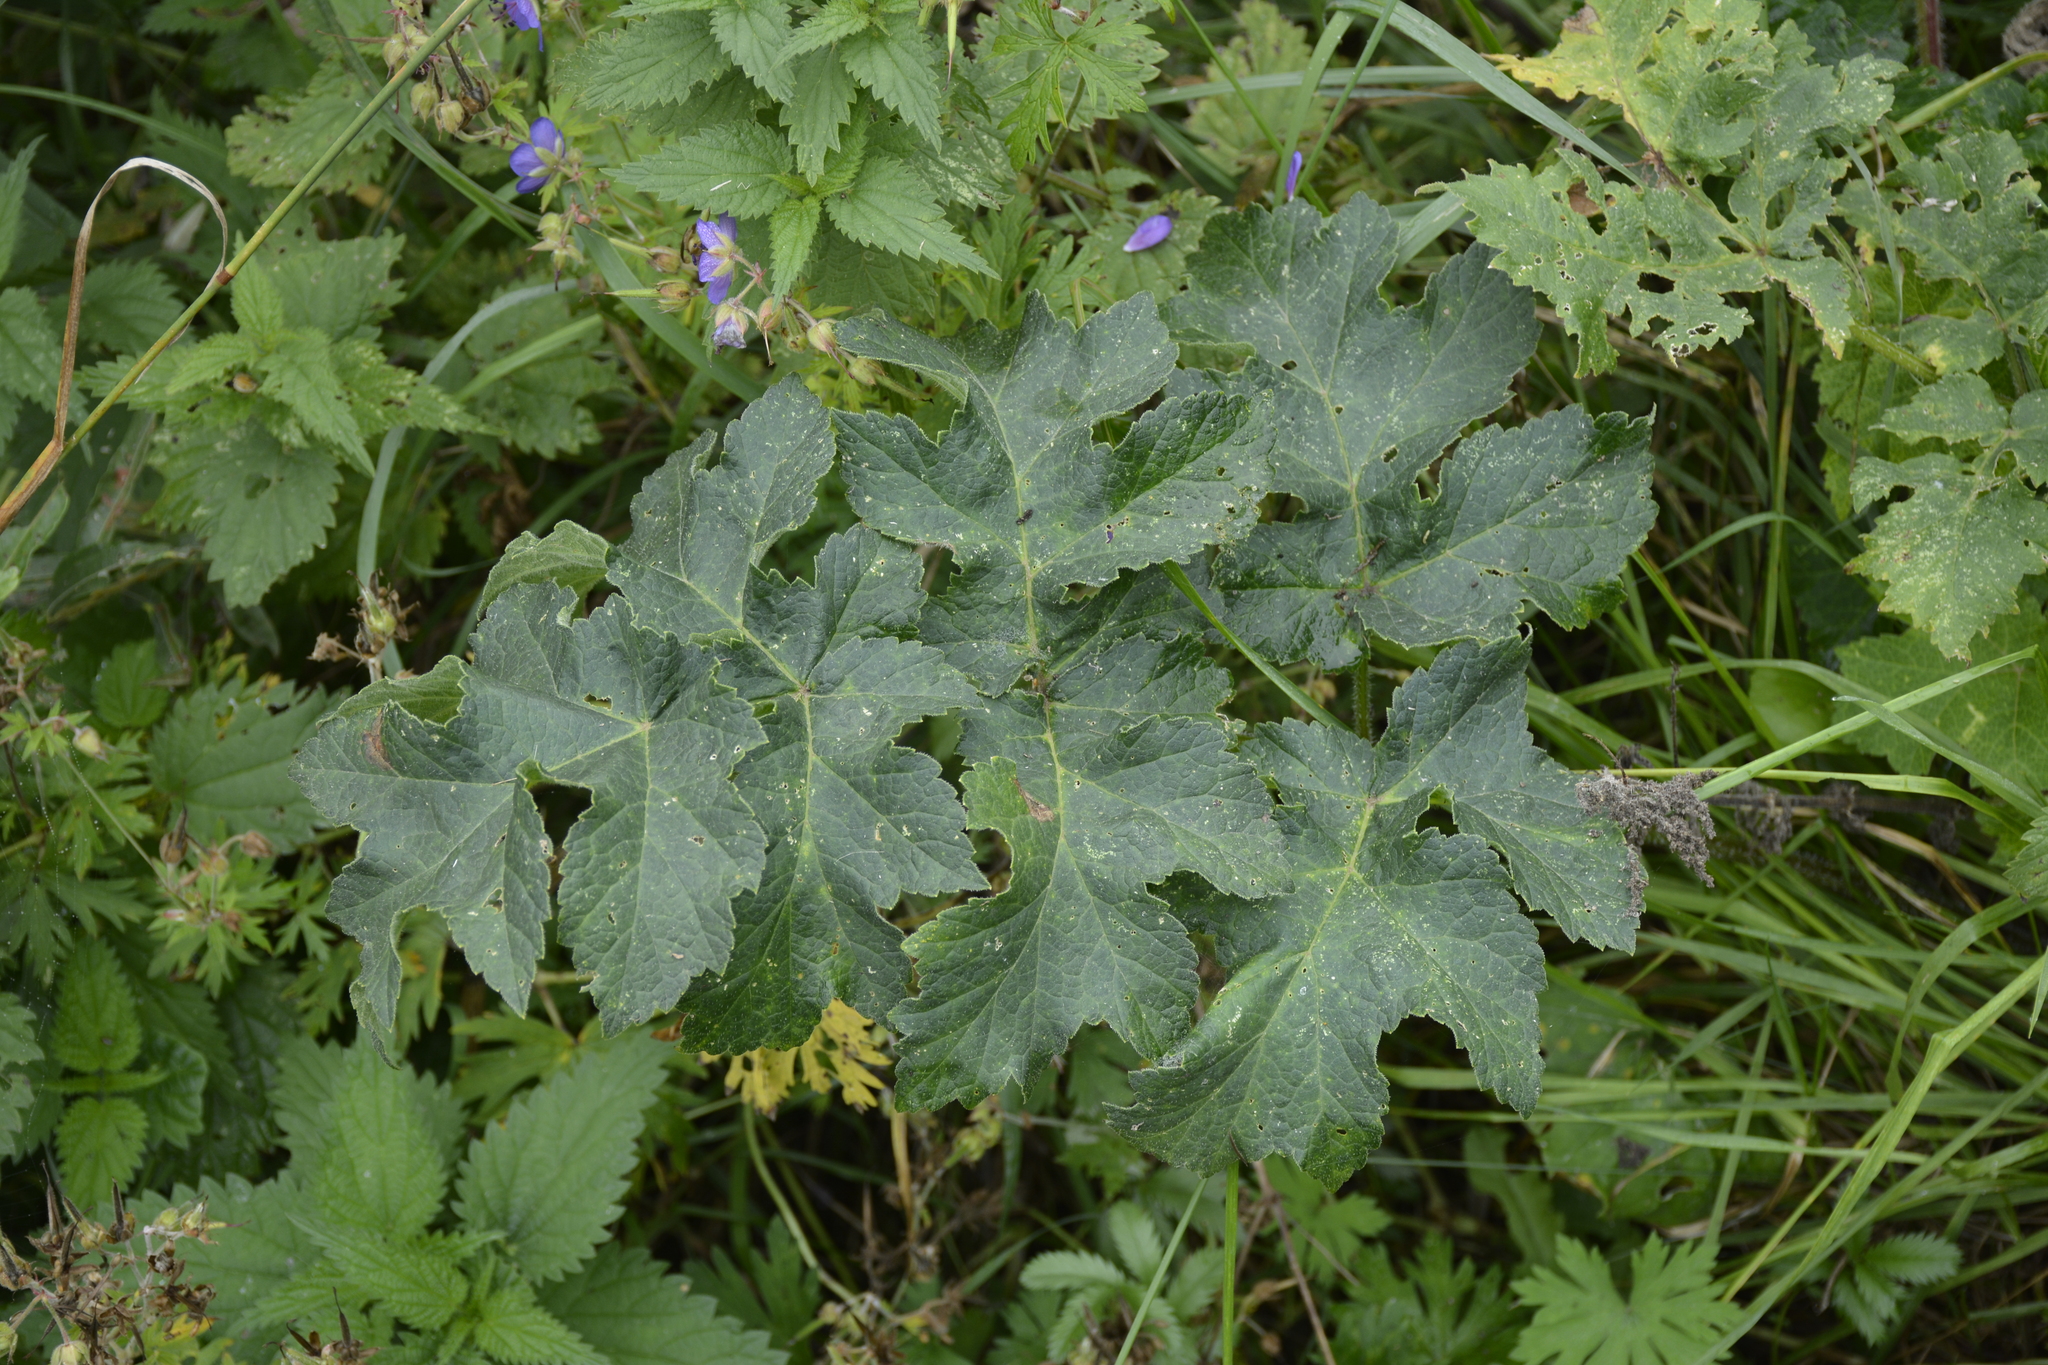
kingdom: Plantae
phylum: Tracheophyta
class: Magnoliopsida
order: Apiales
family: Apiaceae
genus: Heracleum
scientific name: Heracleum sphondylium
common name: Hogweed
